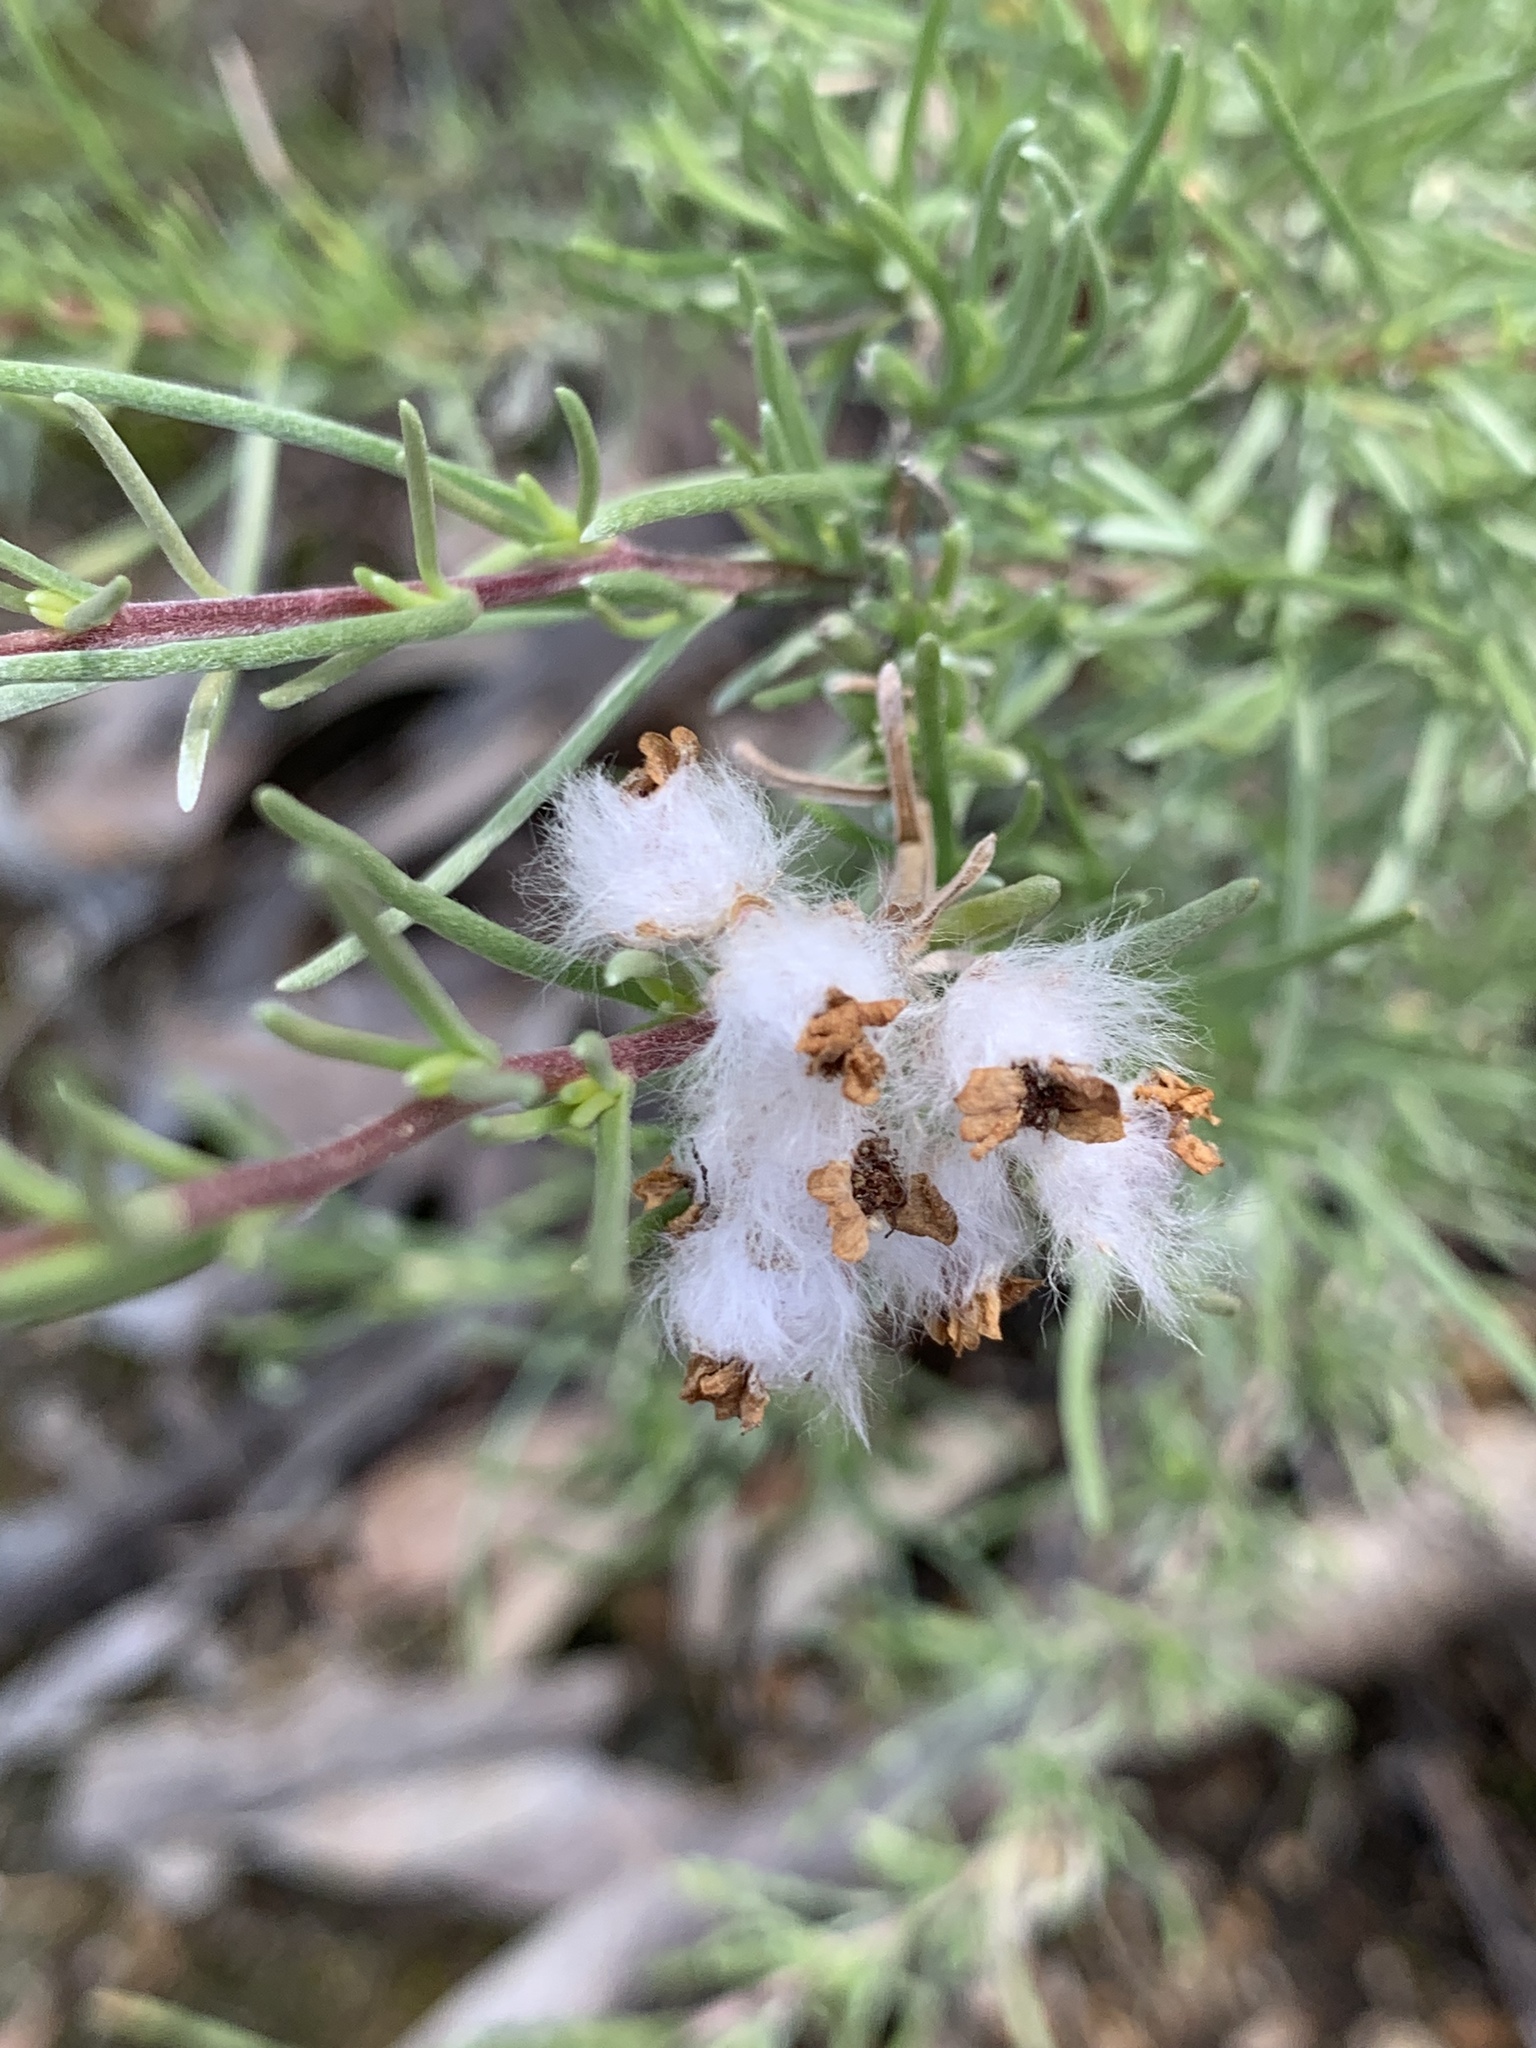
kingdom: Plantae
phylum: Tracheophyta
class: Magnoliopsida
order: Asterales
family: Asteraceae
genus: Eriocephalus
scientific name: Eriocephalus africanus
